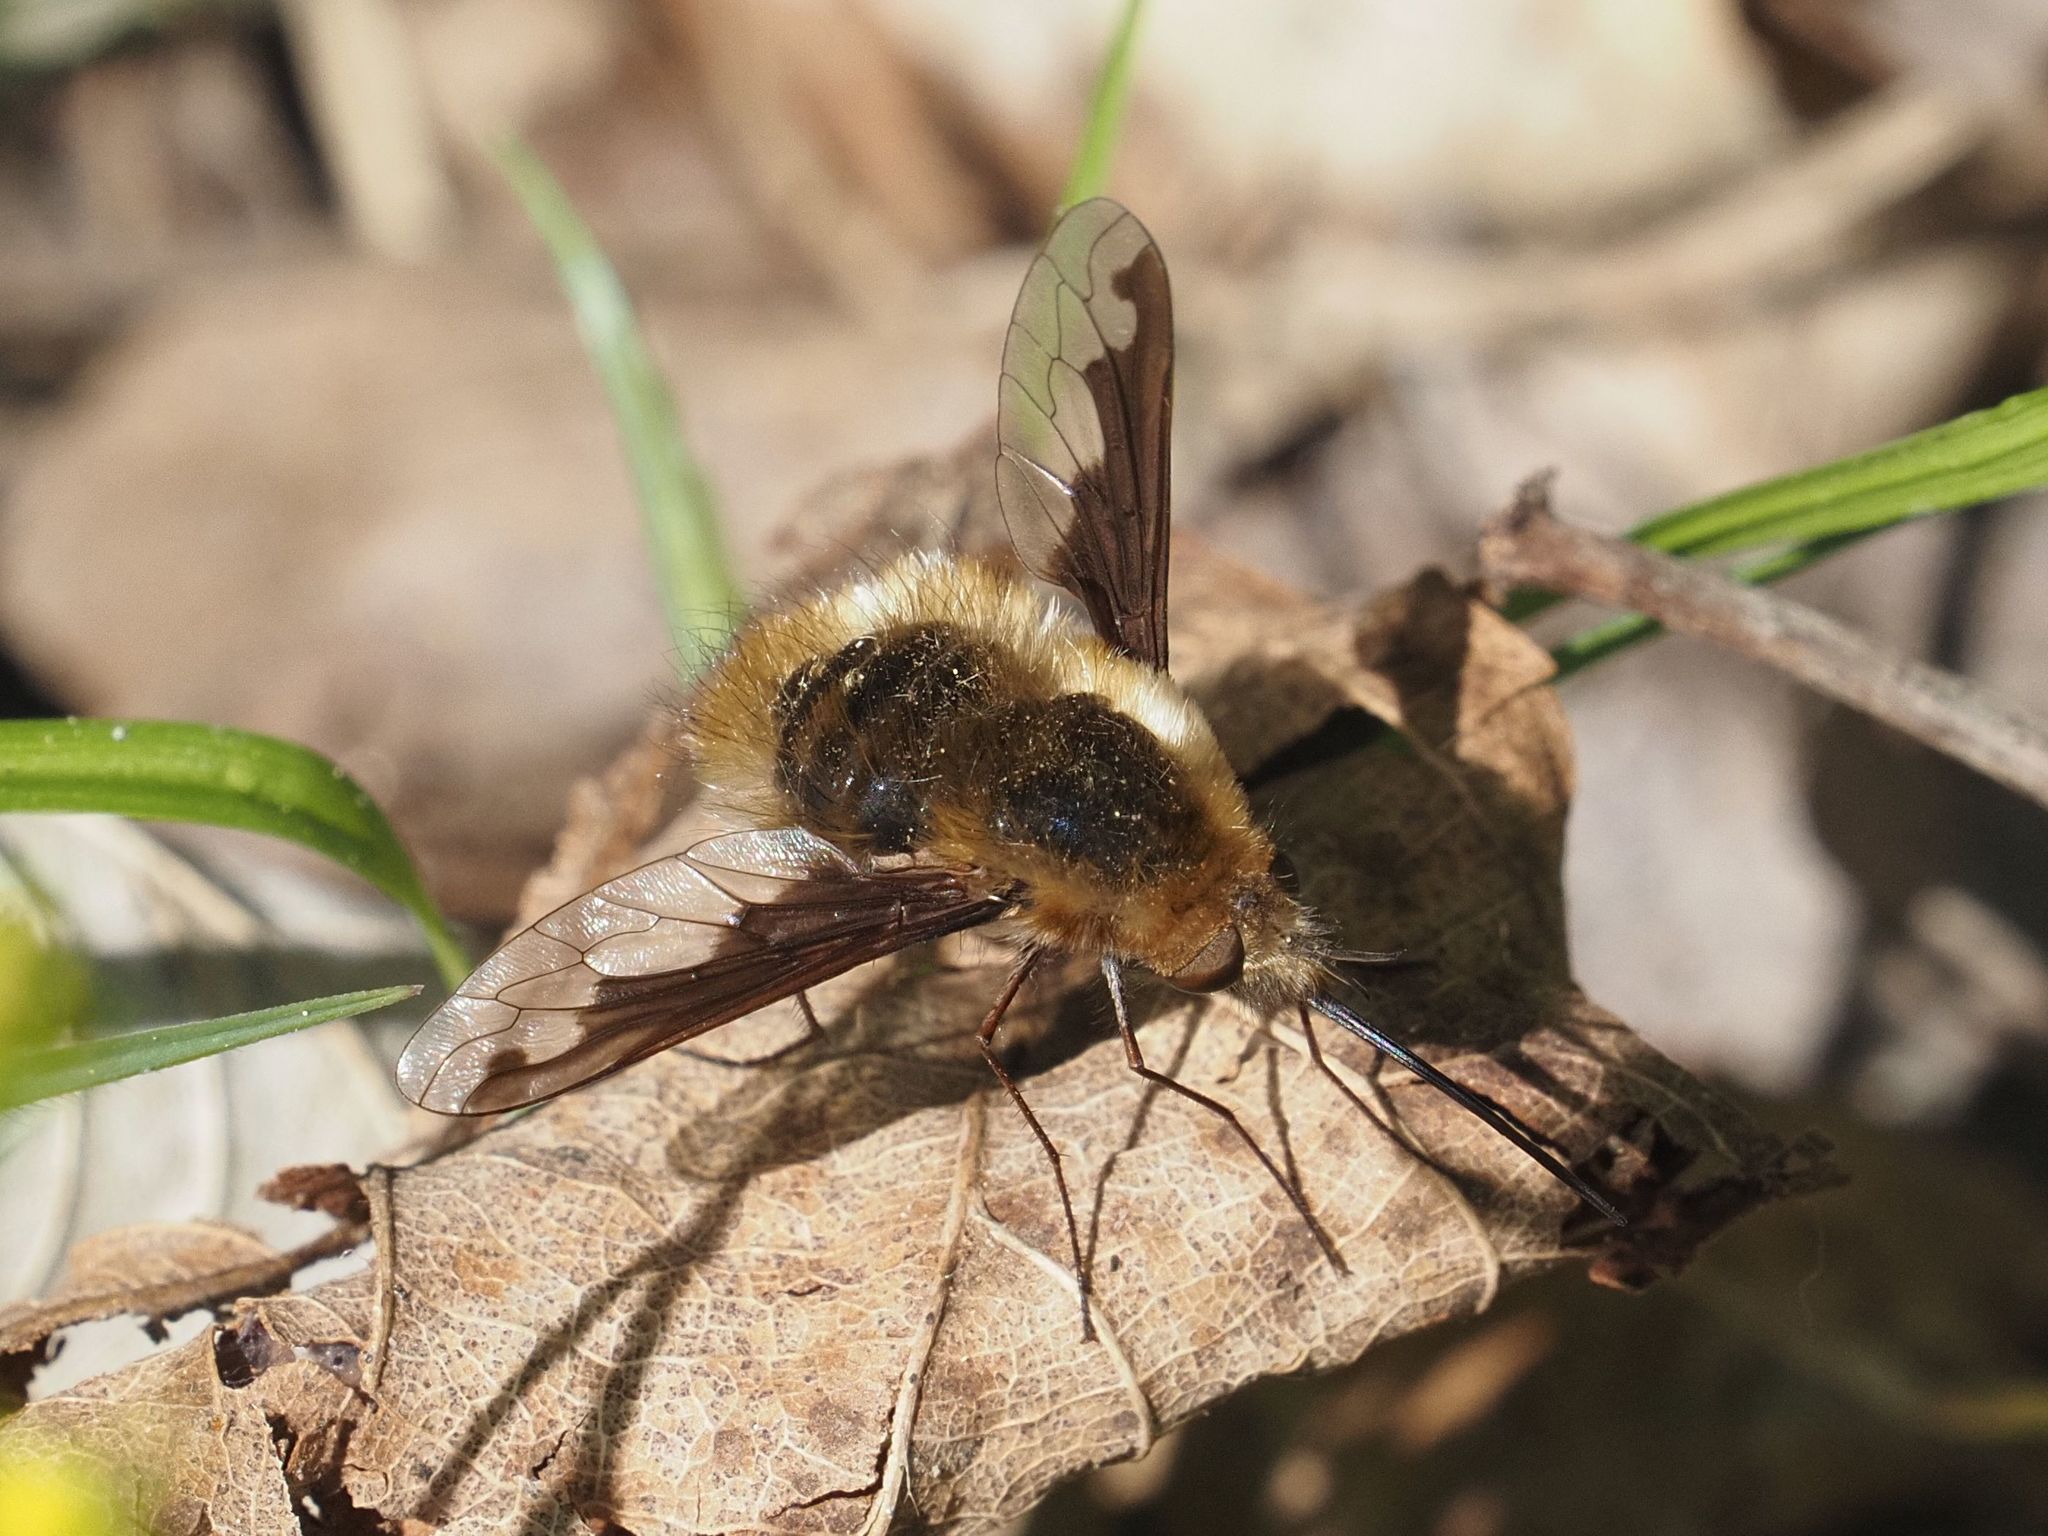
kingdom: Animalia
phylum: Arthropoda
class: Insecta
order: Diptera
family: Bombyliidae
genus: Bombylius
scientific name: Bombylius major
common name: Bee fly
